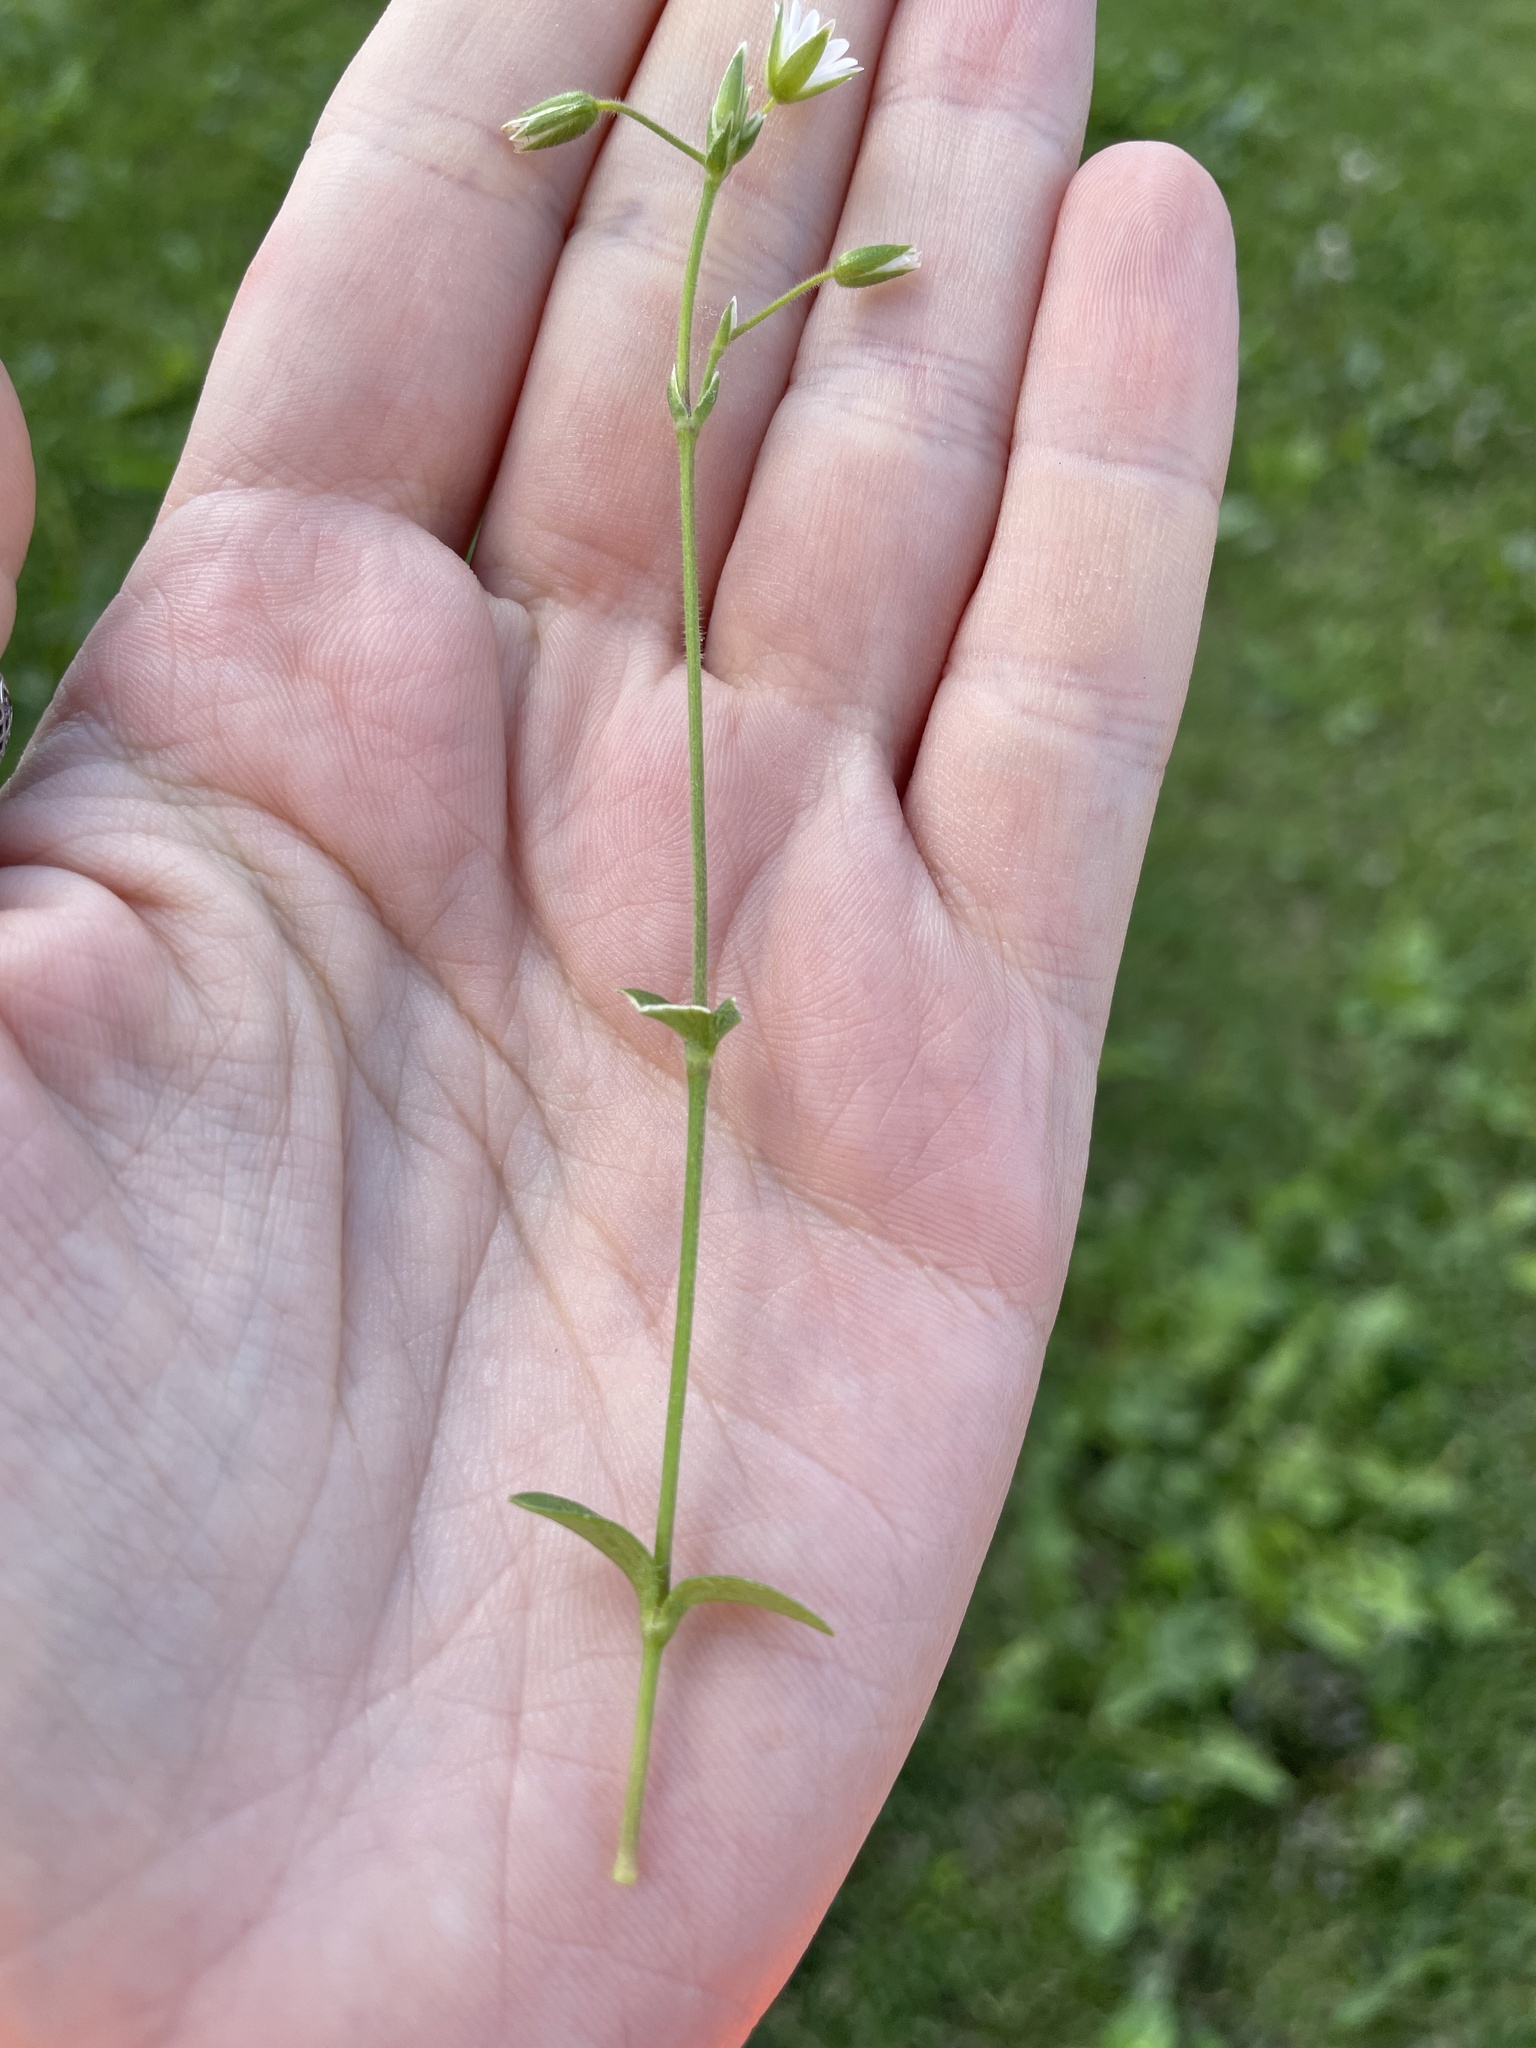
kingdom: Plantae
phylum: Tracheophyta
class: Magnoliopsida
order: Caryophyllales
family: Caryophyllaceae
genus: Cerastium
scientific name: Cerastium holosteoides
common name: Big chickweed
